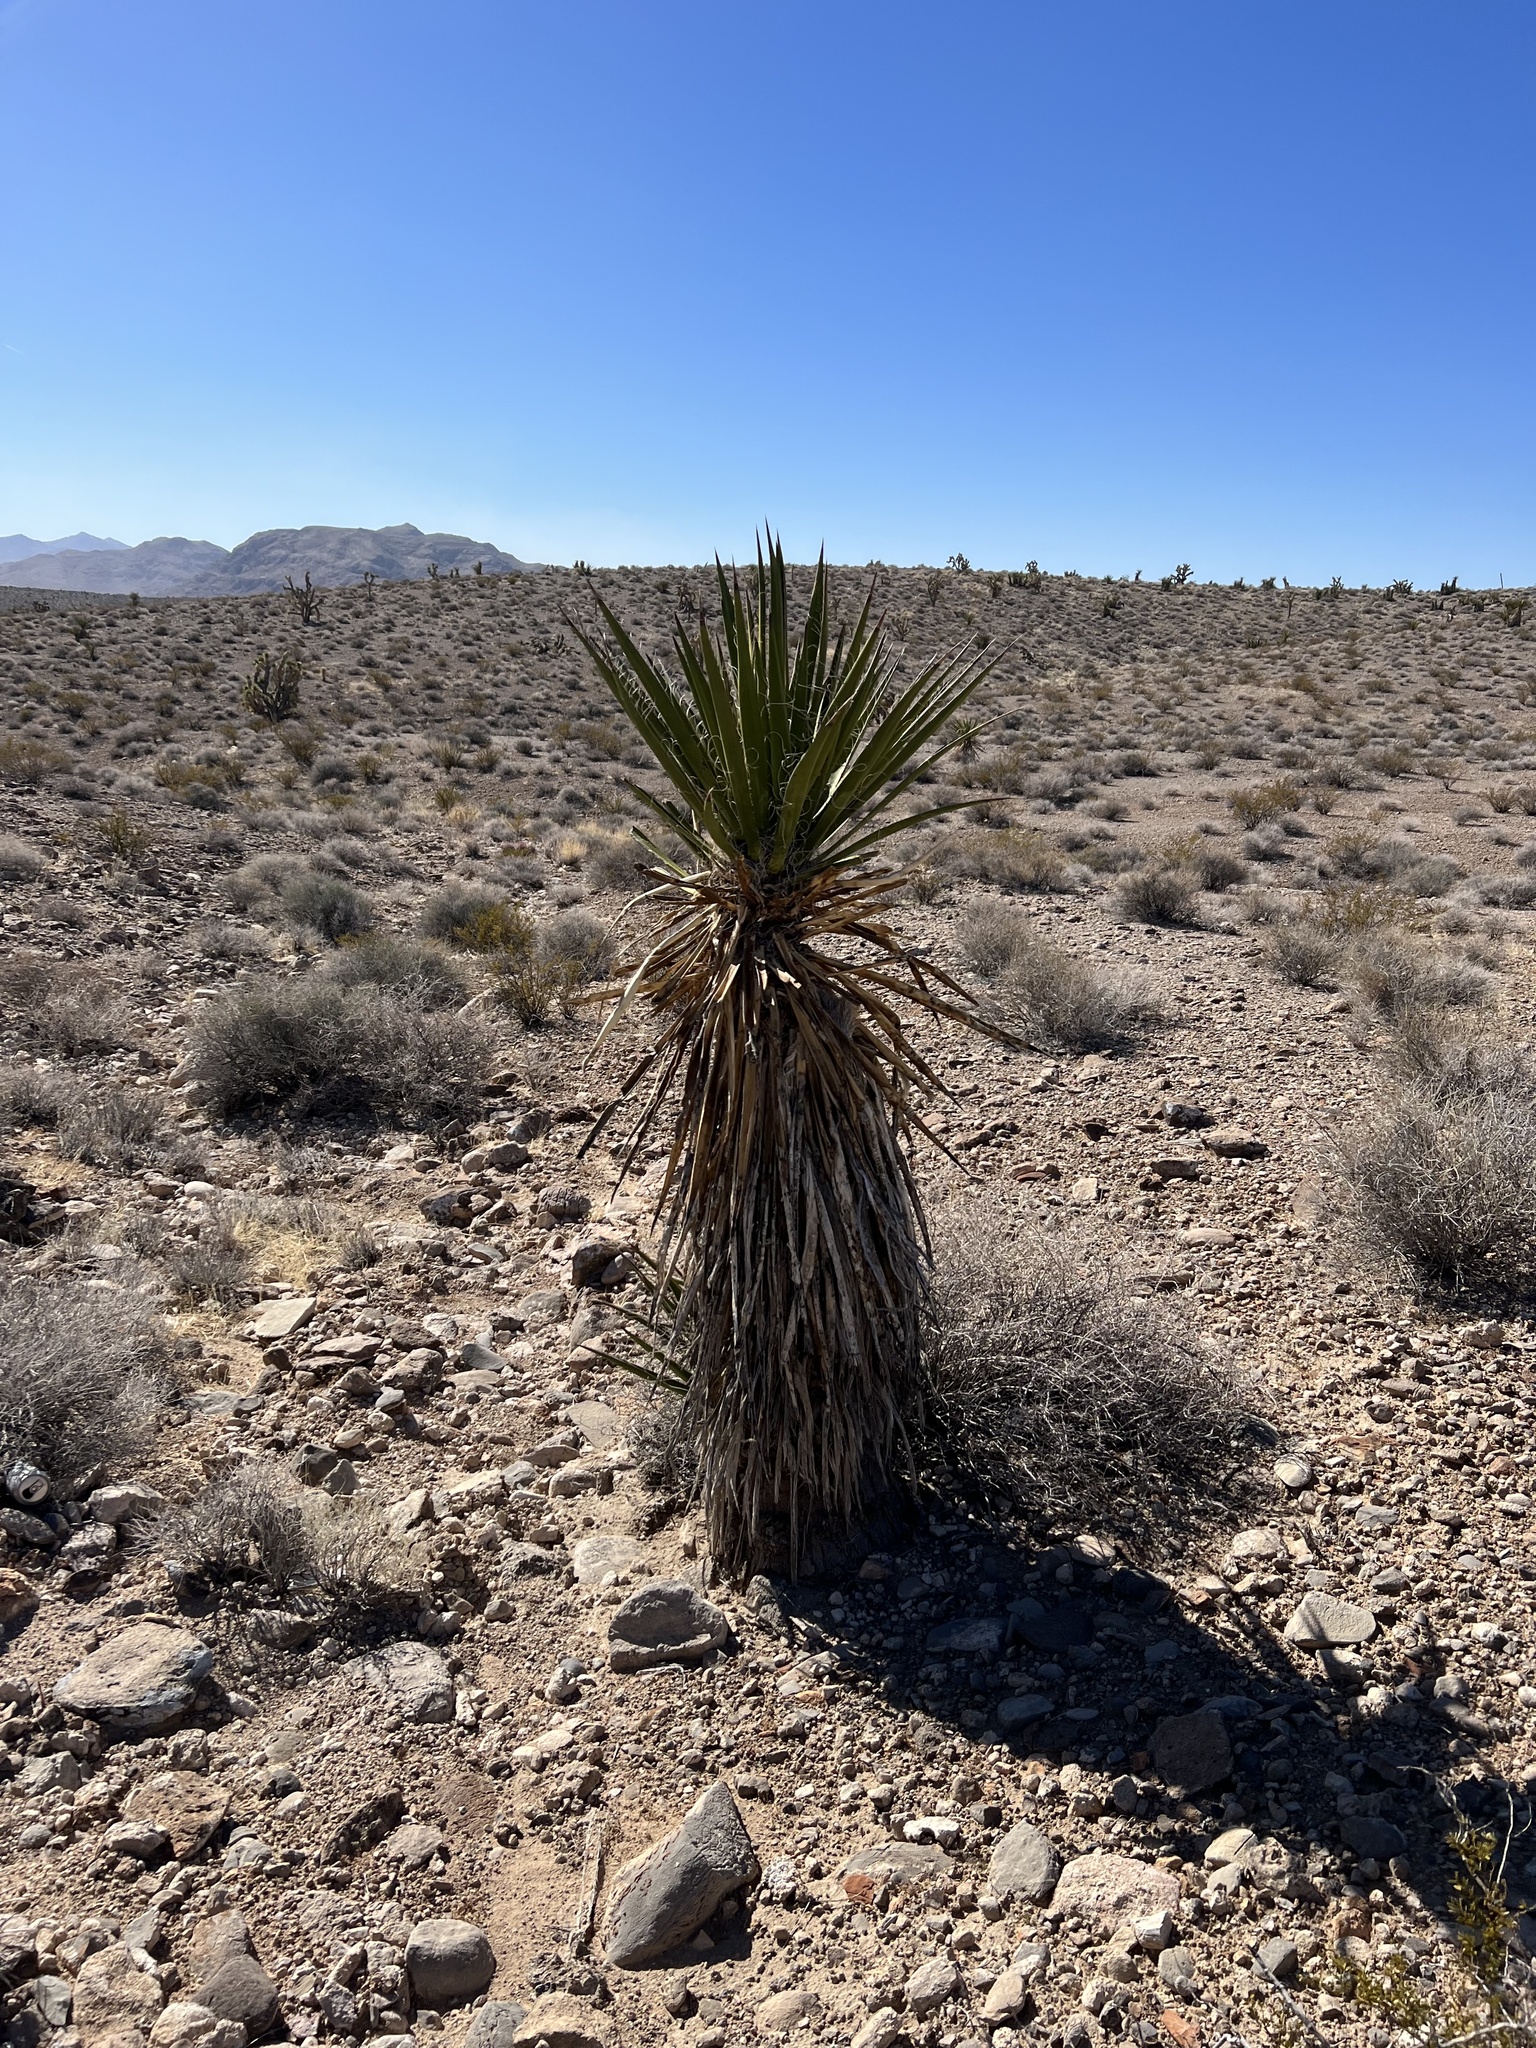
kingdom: Plantae
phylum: Tracheophyta
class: Liliopsida
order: Asparagales
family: Asparagaceae
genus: Yucca
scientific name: Yucca schidigera
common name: Mojave yucca
